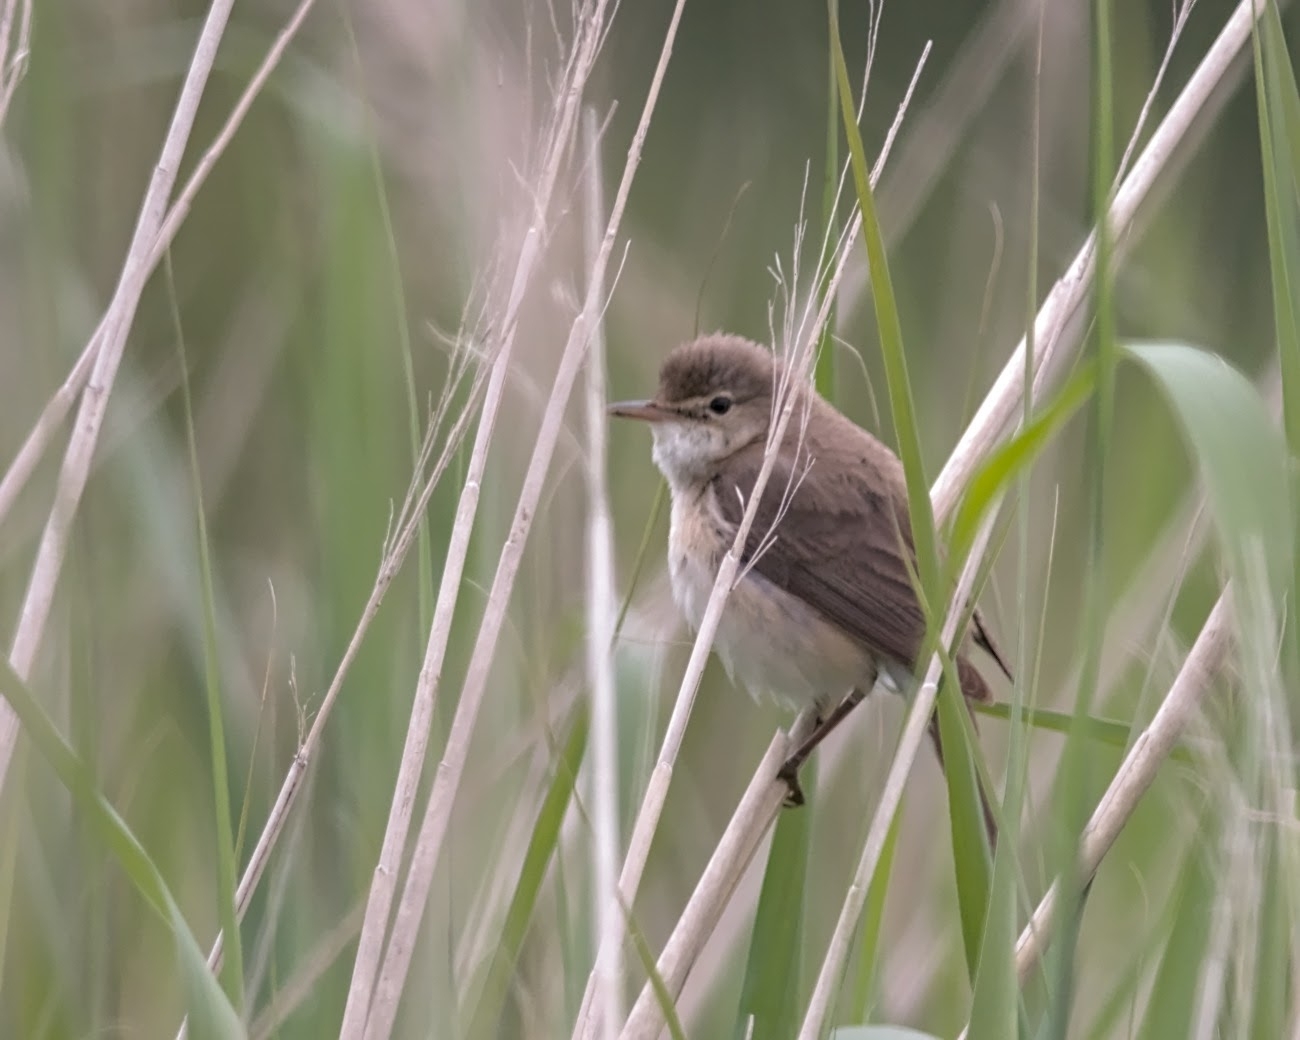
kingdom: Animalia
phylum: Chordata
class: Aves
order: Passeriformes
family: Acrocephalidae
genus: Acrocephalus
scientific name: Acrocephalus scirpaceus
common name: Eurasian reed warbler
